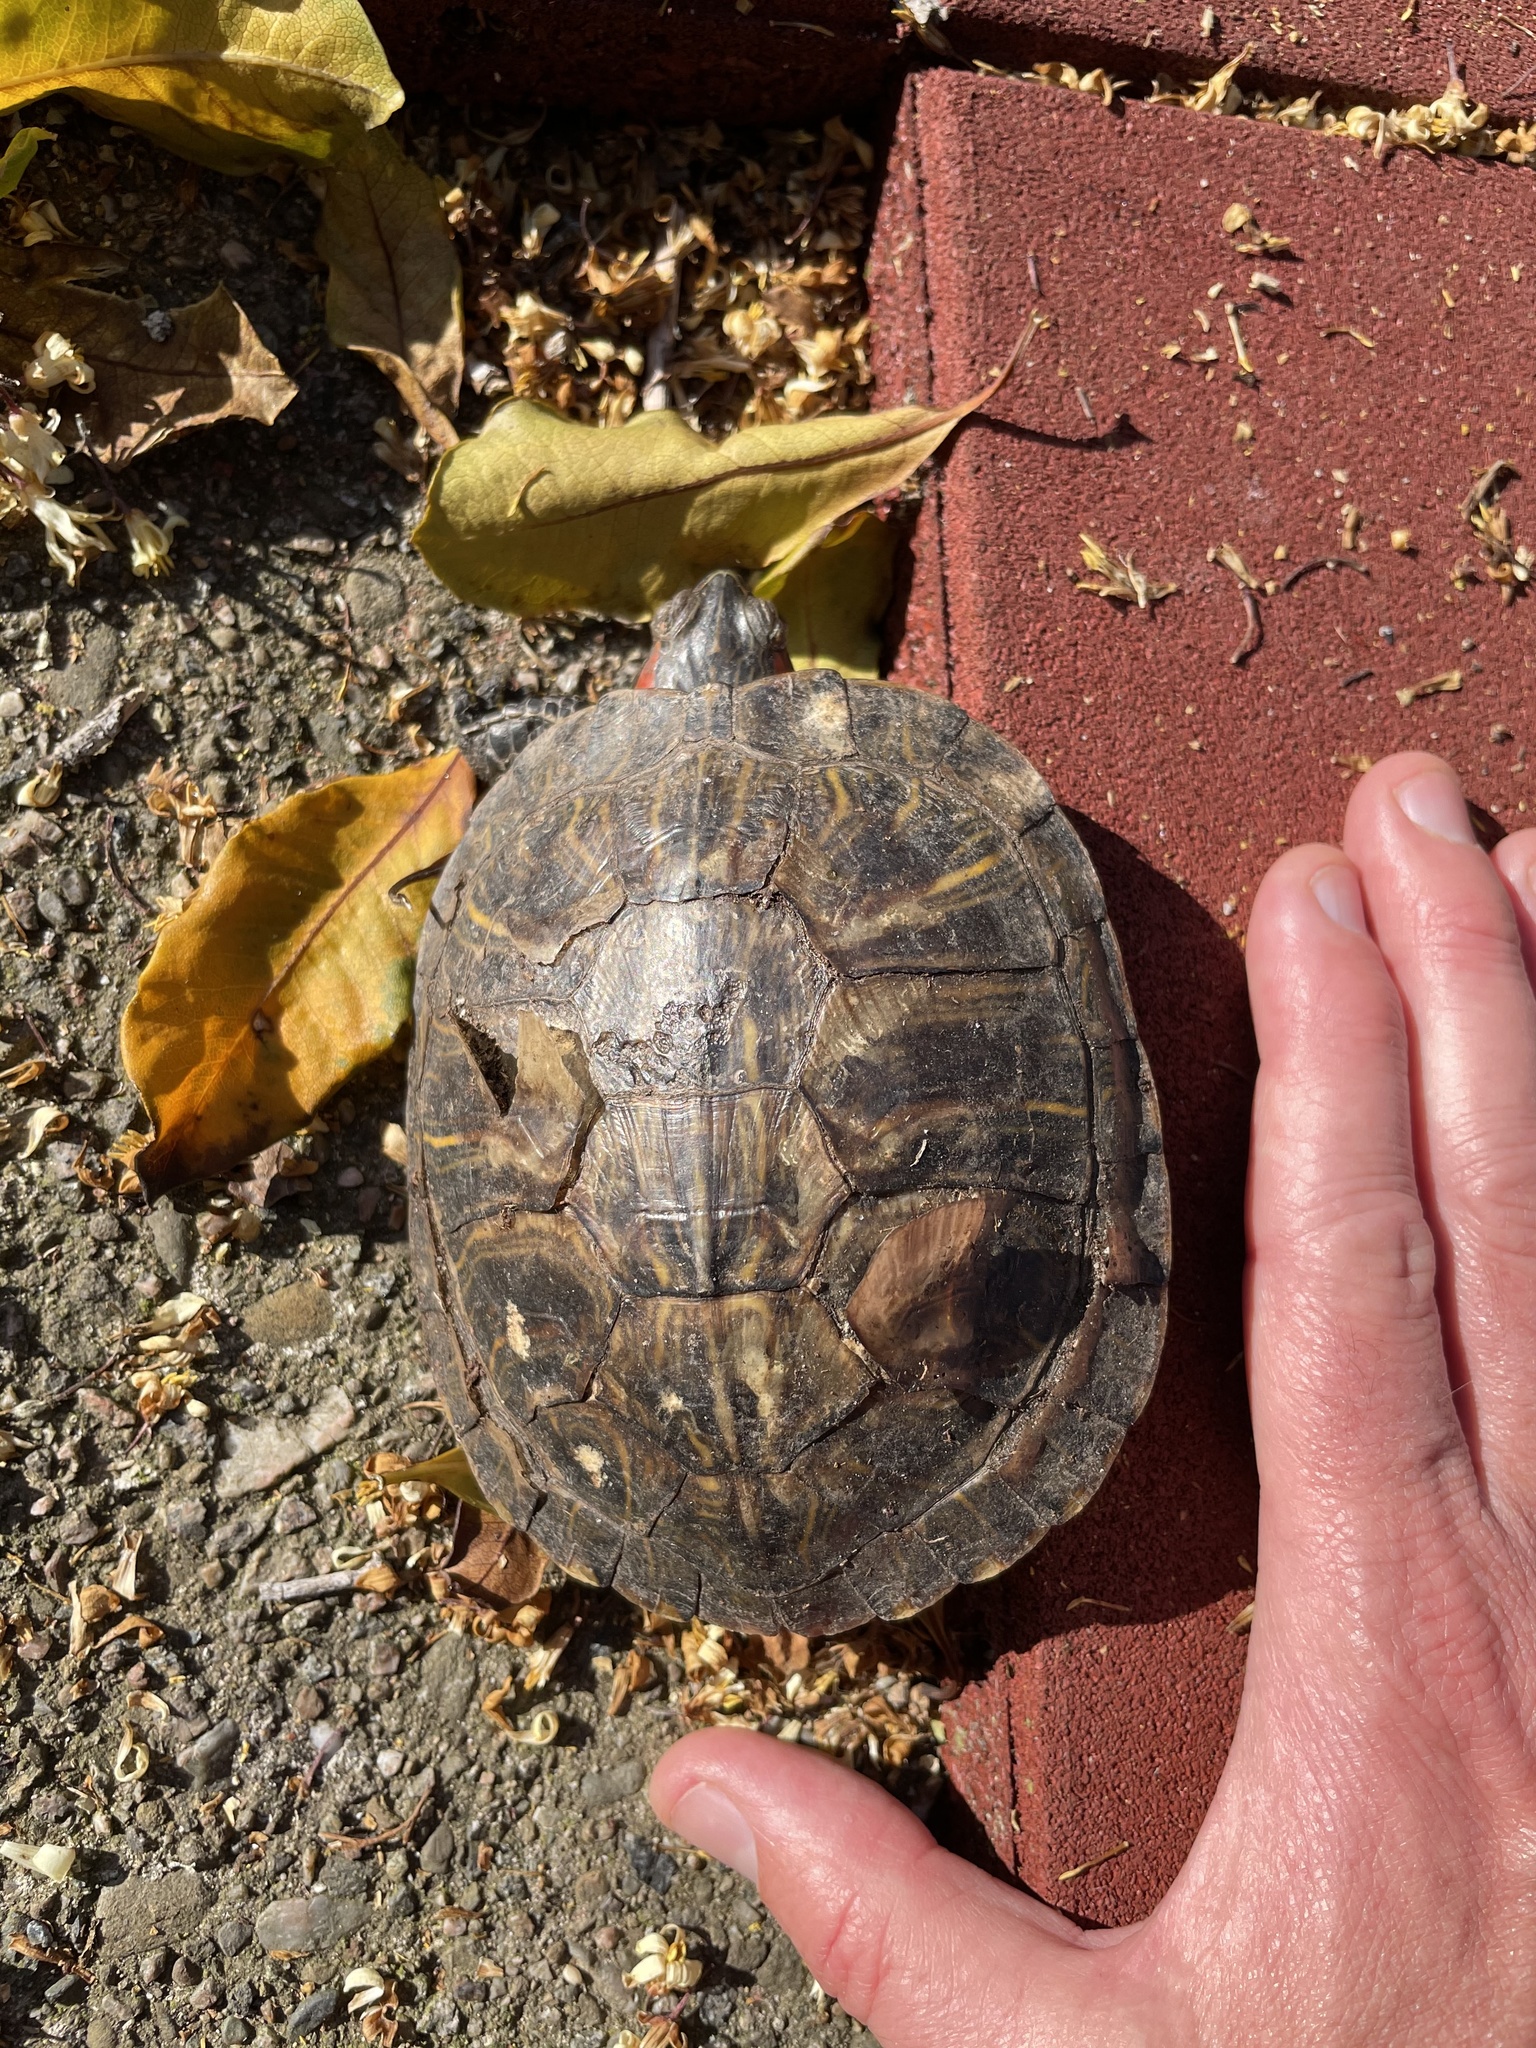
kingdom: Animalia
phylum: Chordata
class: Testudines
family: Emydidae
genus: Trachemys
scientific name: Trachemys scripta
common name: Slider
